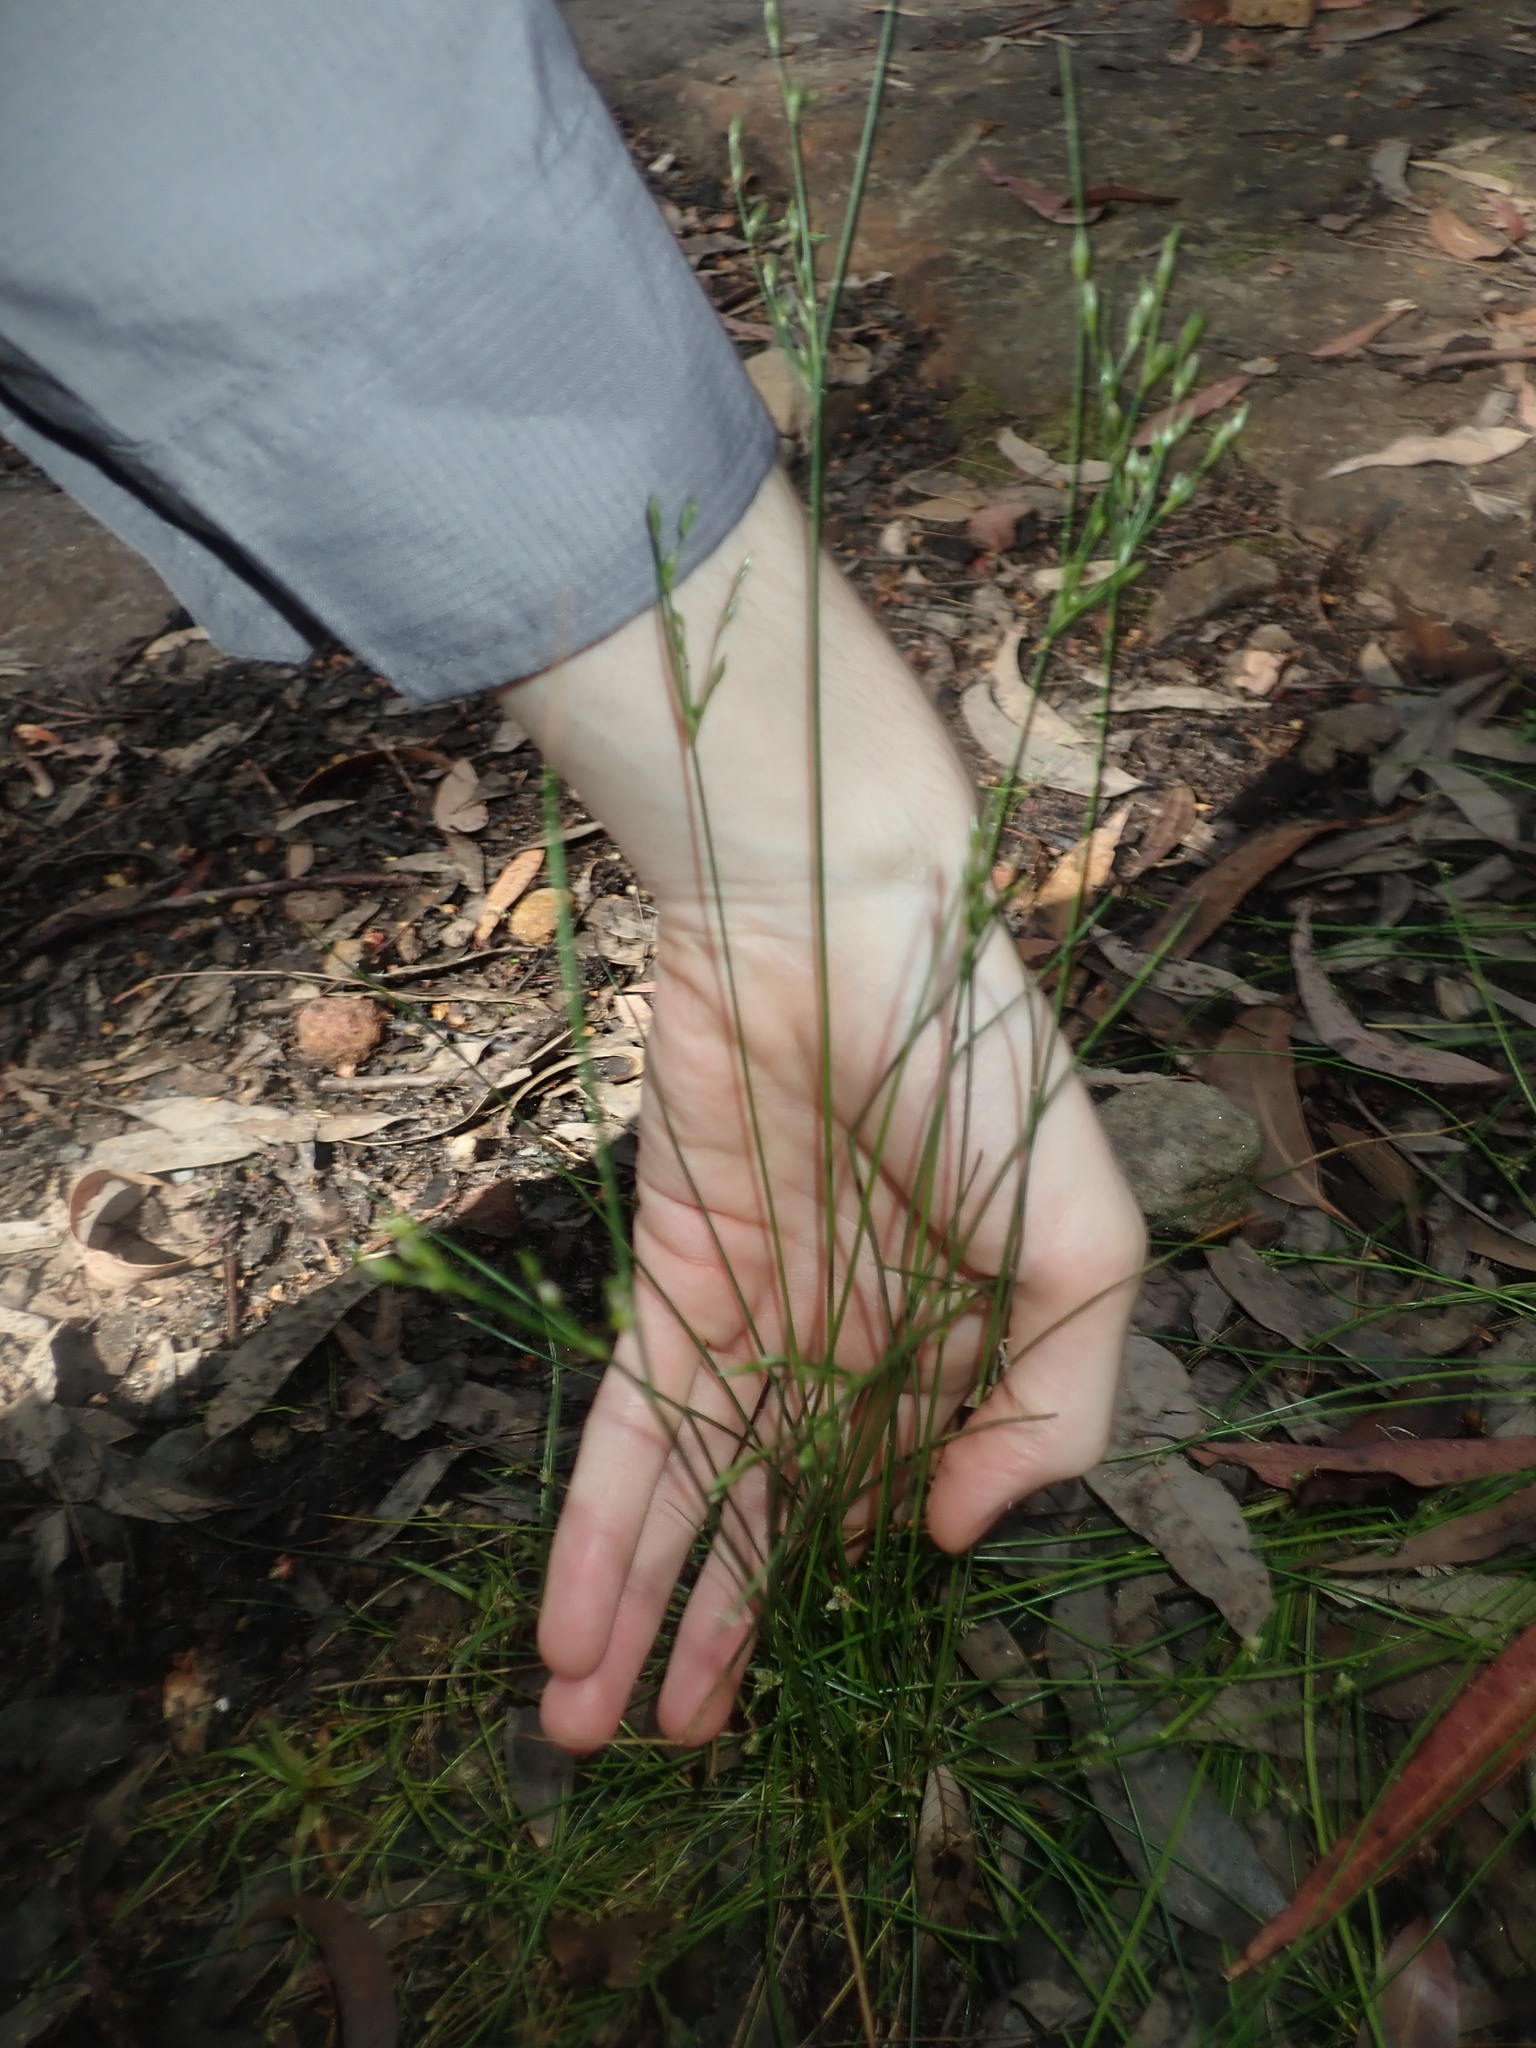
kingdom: Plantae
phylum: Tracheophyta
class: Liliopsida
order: Poales
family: Juncaceae
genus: Juncus
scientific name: Juncus bufonius
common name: Toad rush
